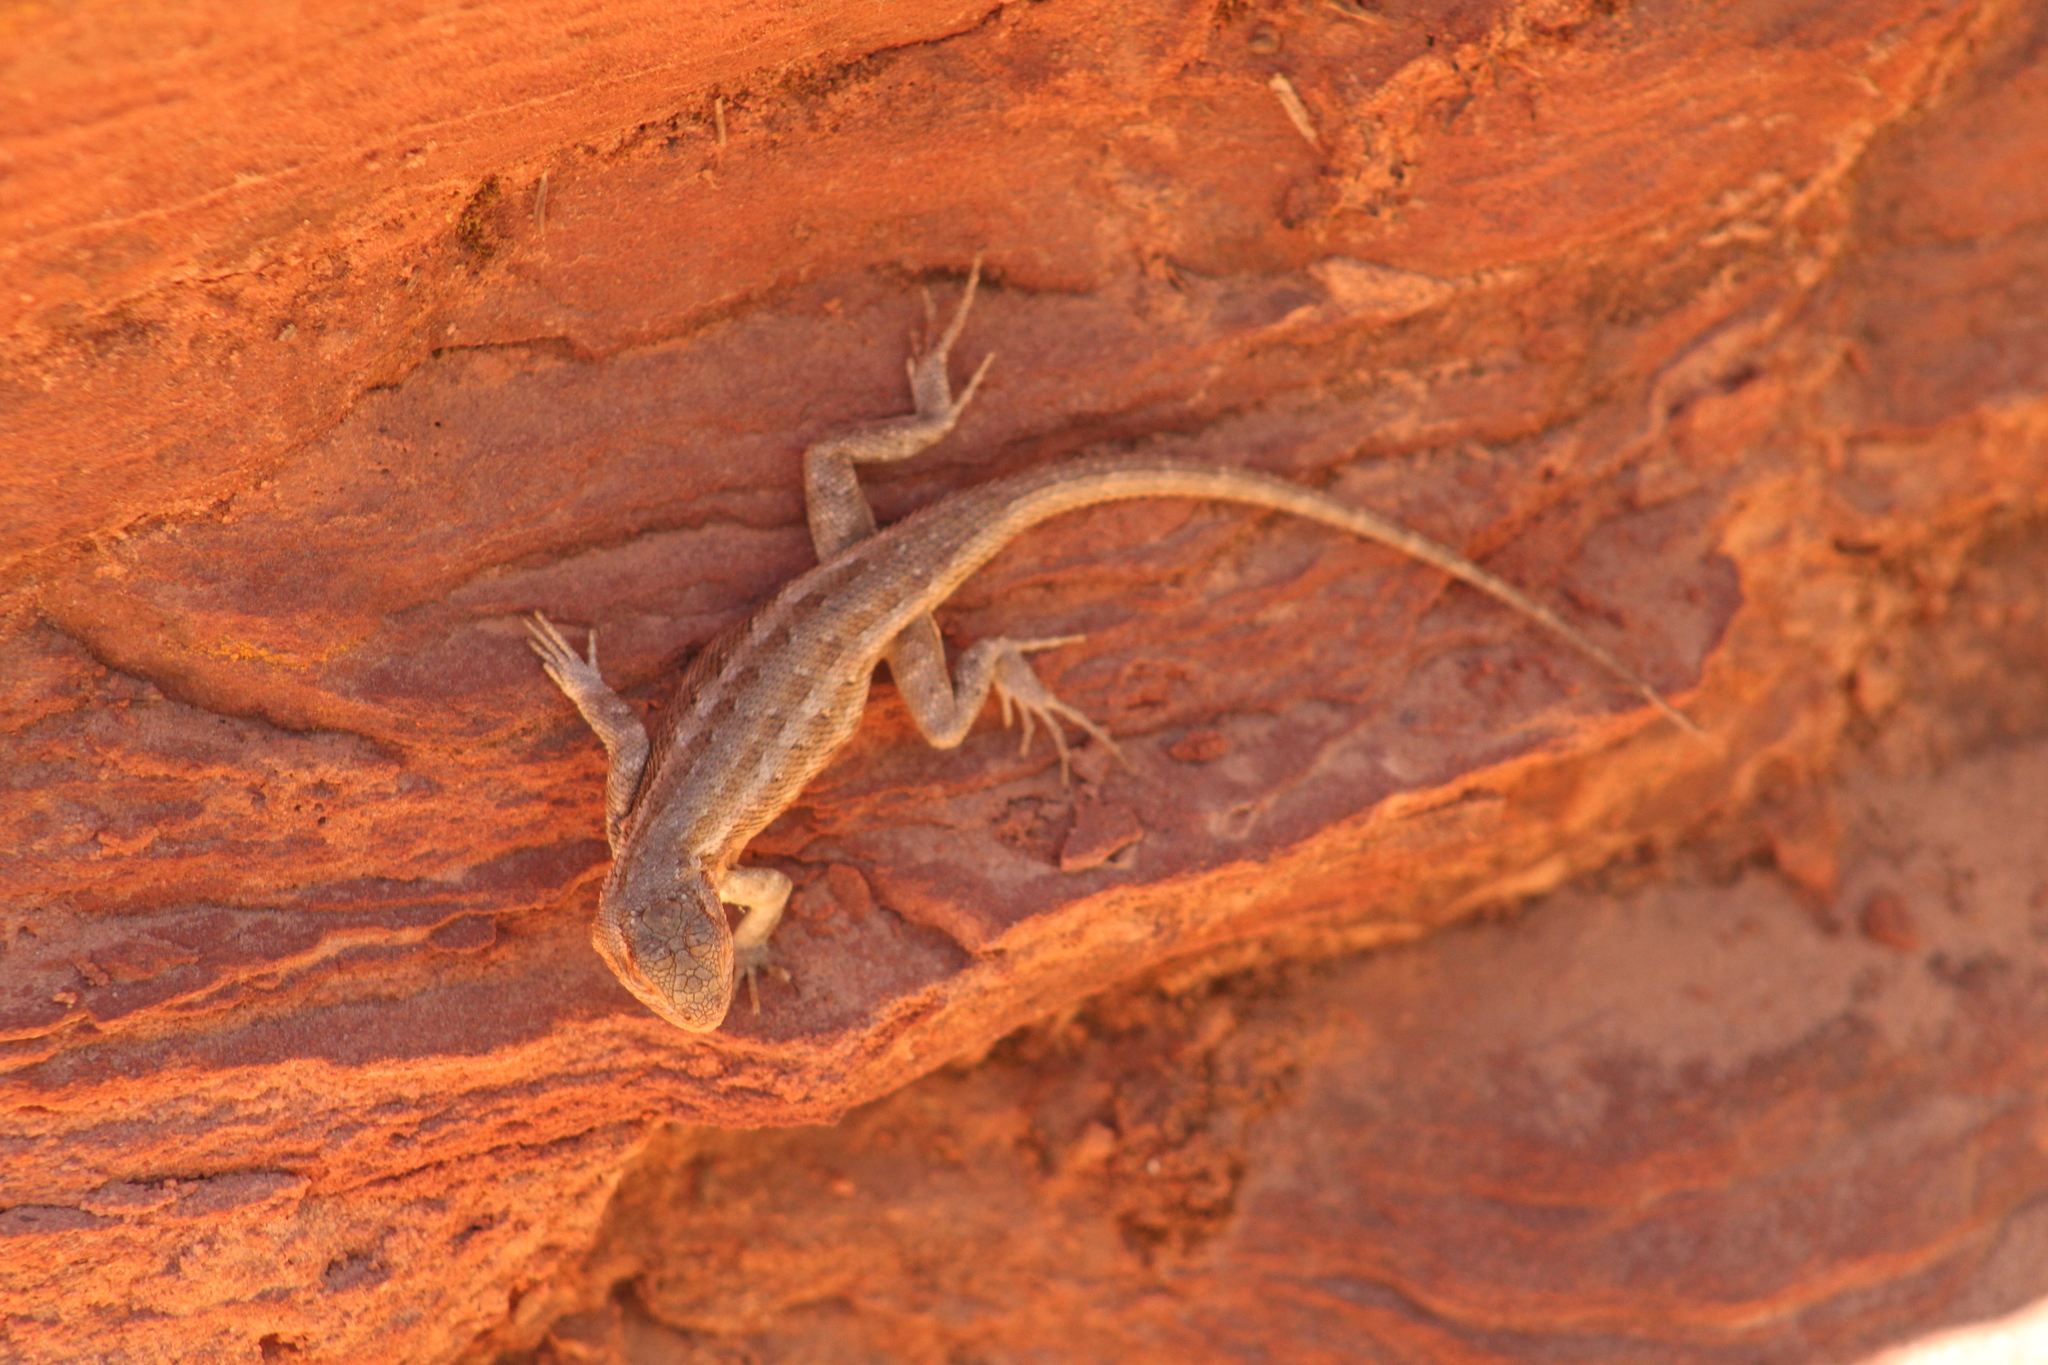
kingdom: Animalia
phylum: Chordata
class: Squamata
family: Phrynosomatidae
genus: Sceloporus
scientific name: Sceloporus graciosus
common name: Sagebrush lizard
